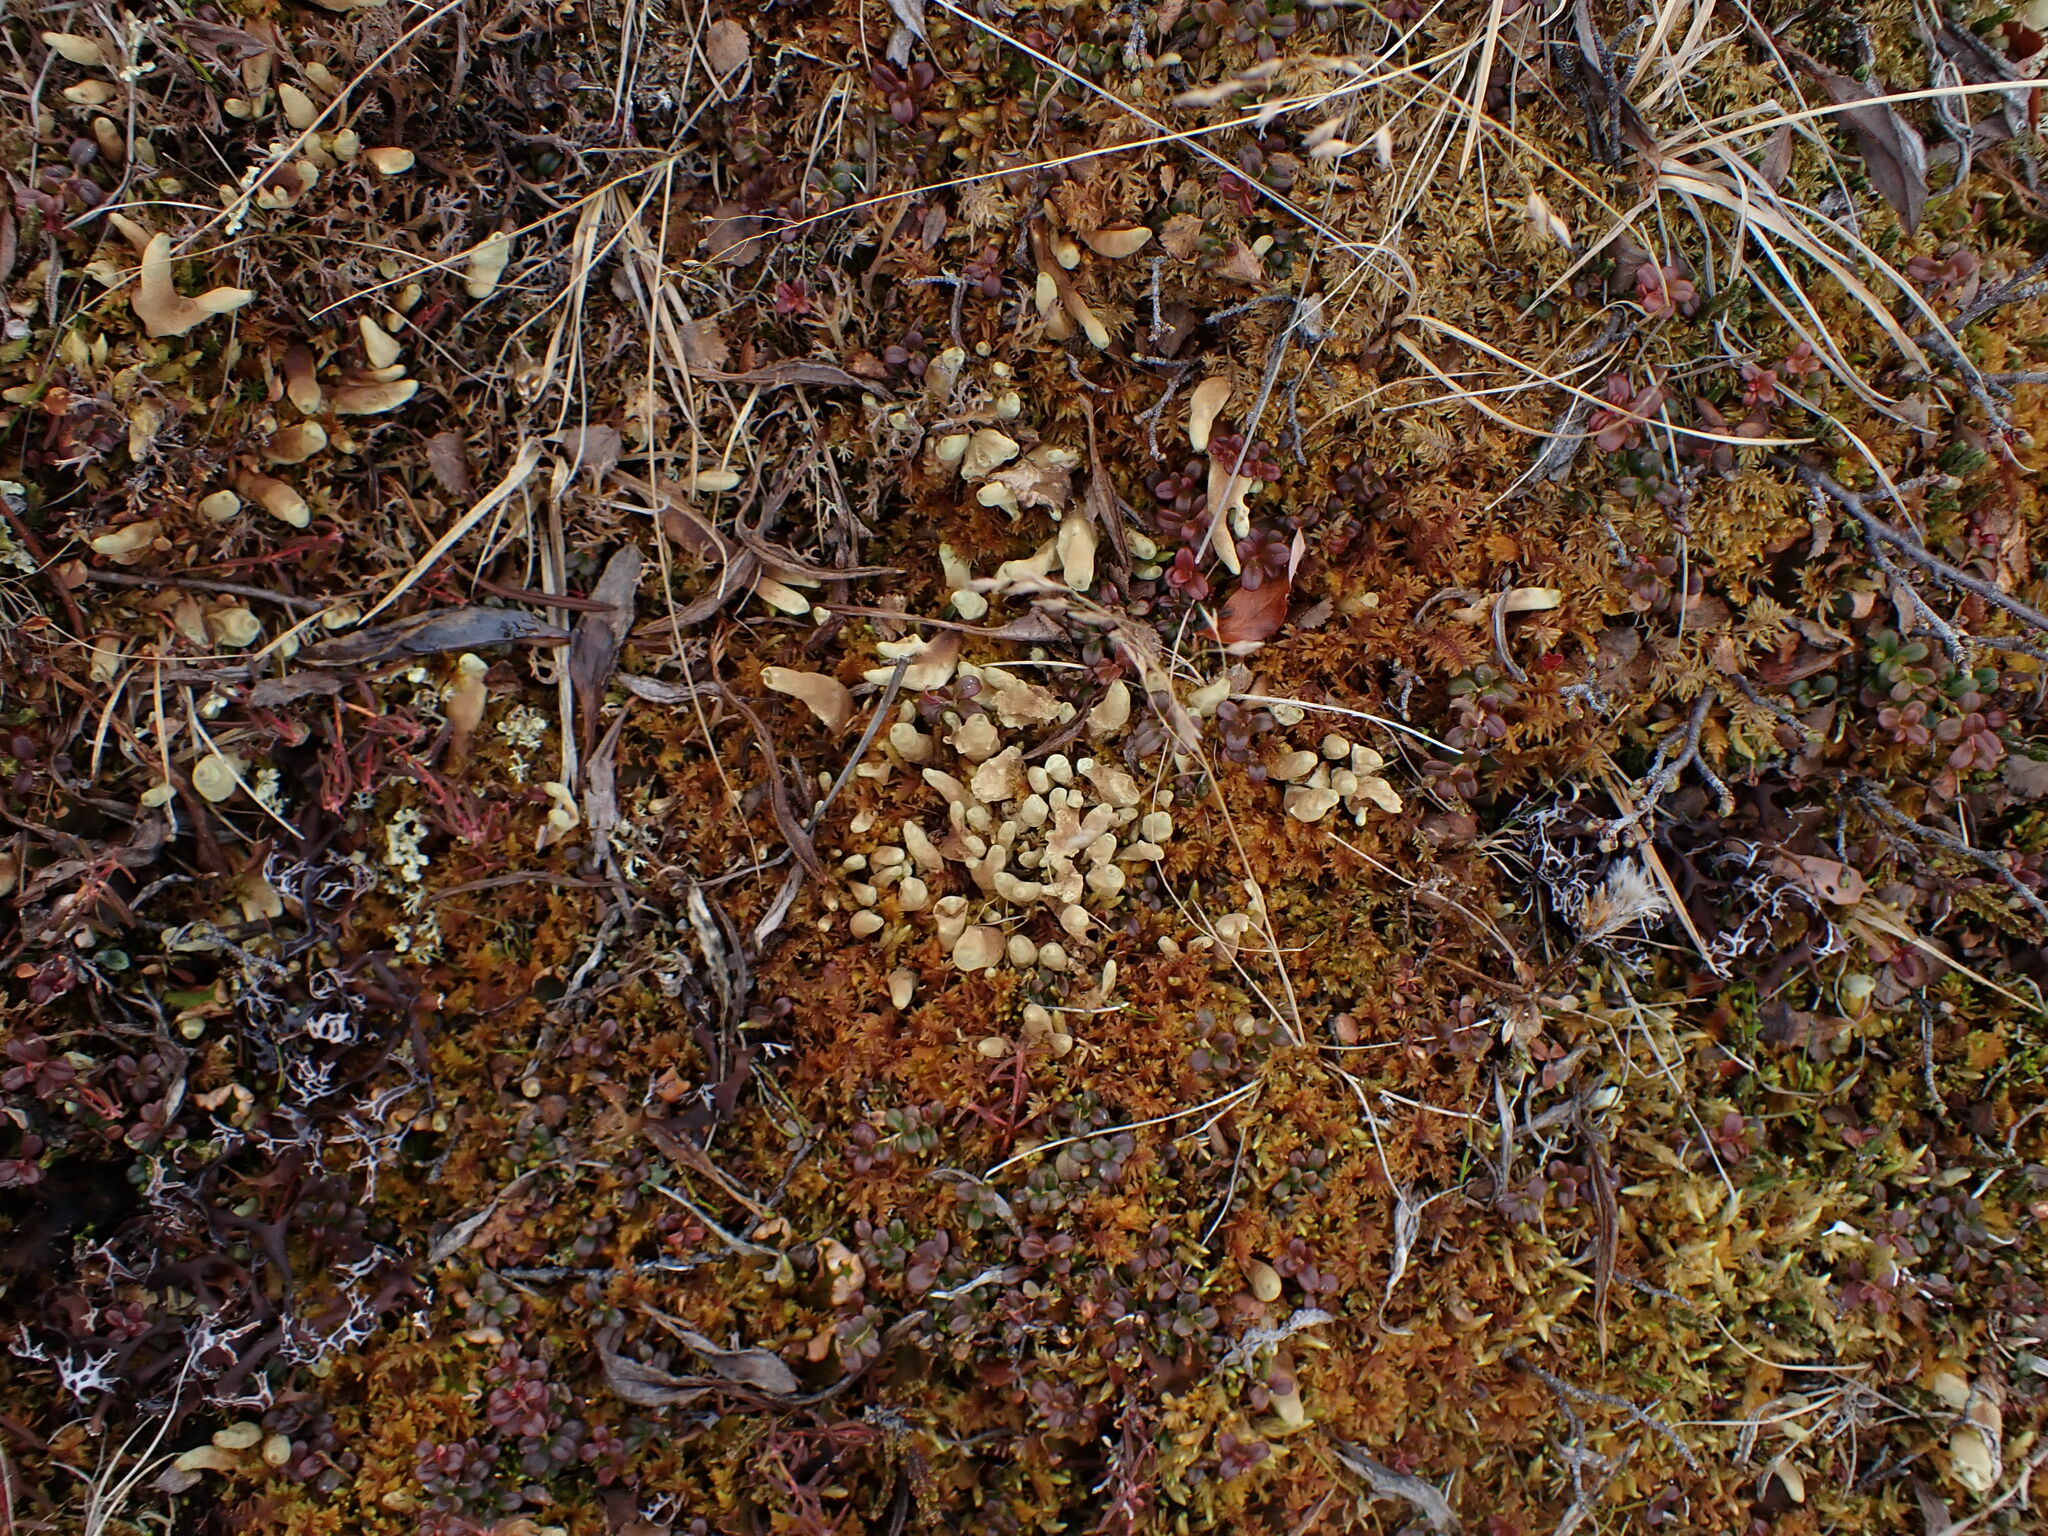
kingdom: Fungi
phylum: Ascomycota
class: Lecanoromycetes
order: Lecanorales
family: Parmeliaceae
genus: Dactylina
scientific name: Dactylina arctica
